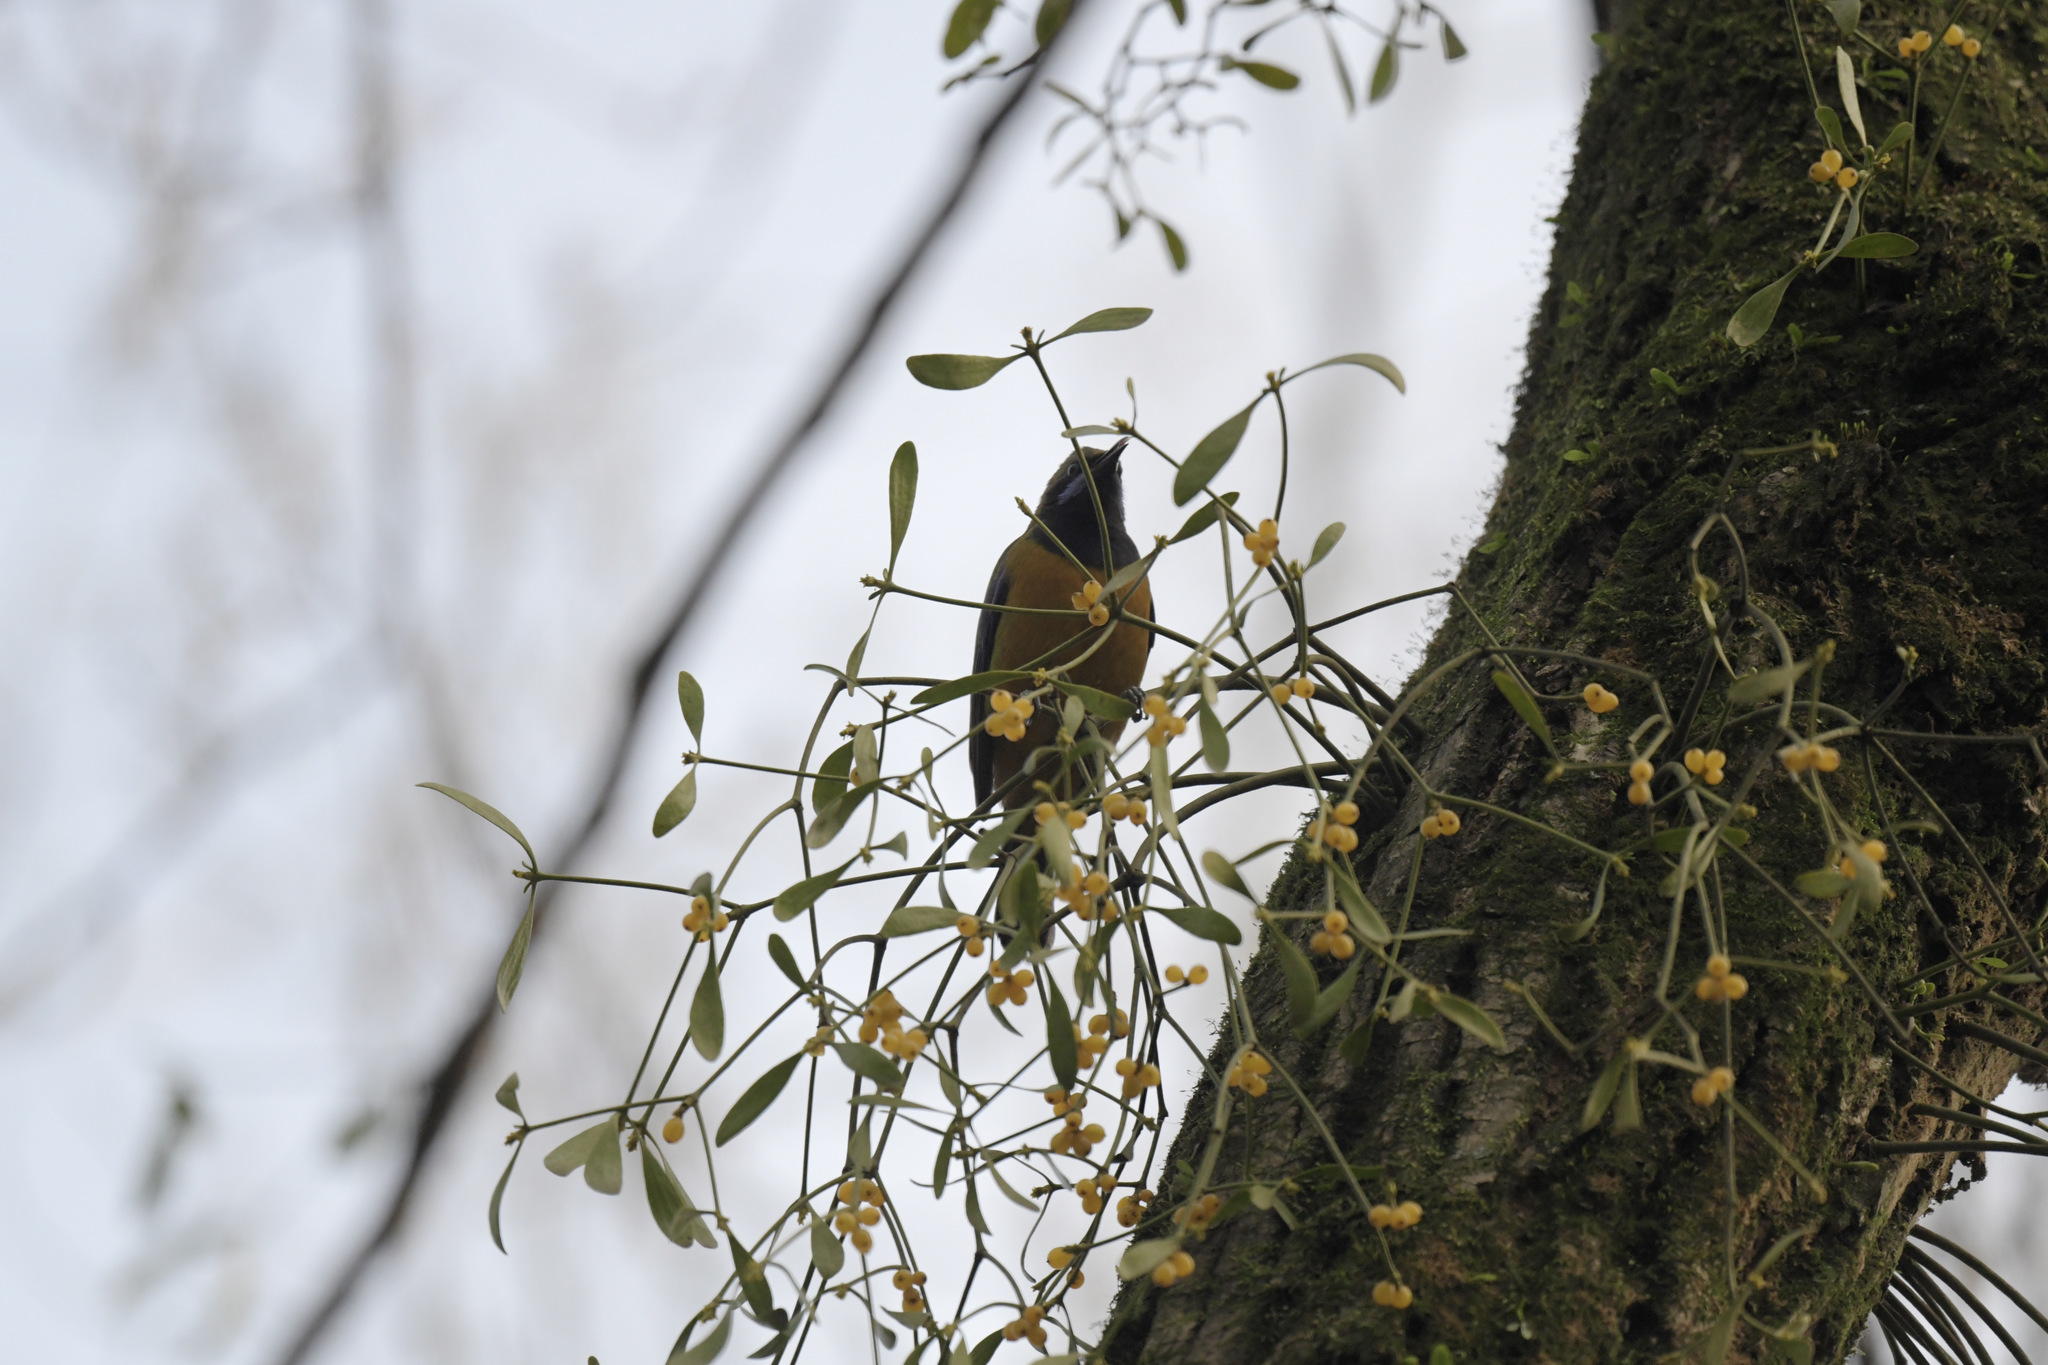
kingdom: Animalia
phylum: Chordata
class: Aves
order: Passeriformes
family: Chloropseidae
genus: Chloropsis
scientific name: Chloropsis hardwickii
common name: Orange-bellied leafbird
